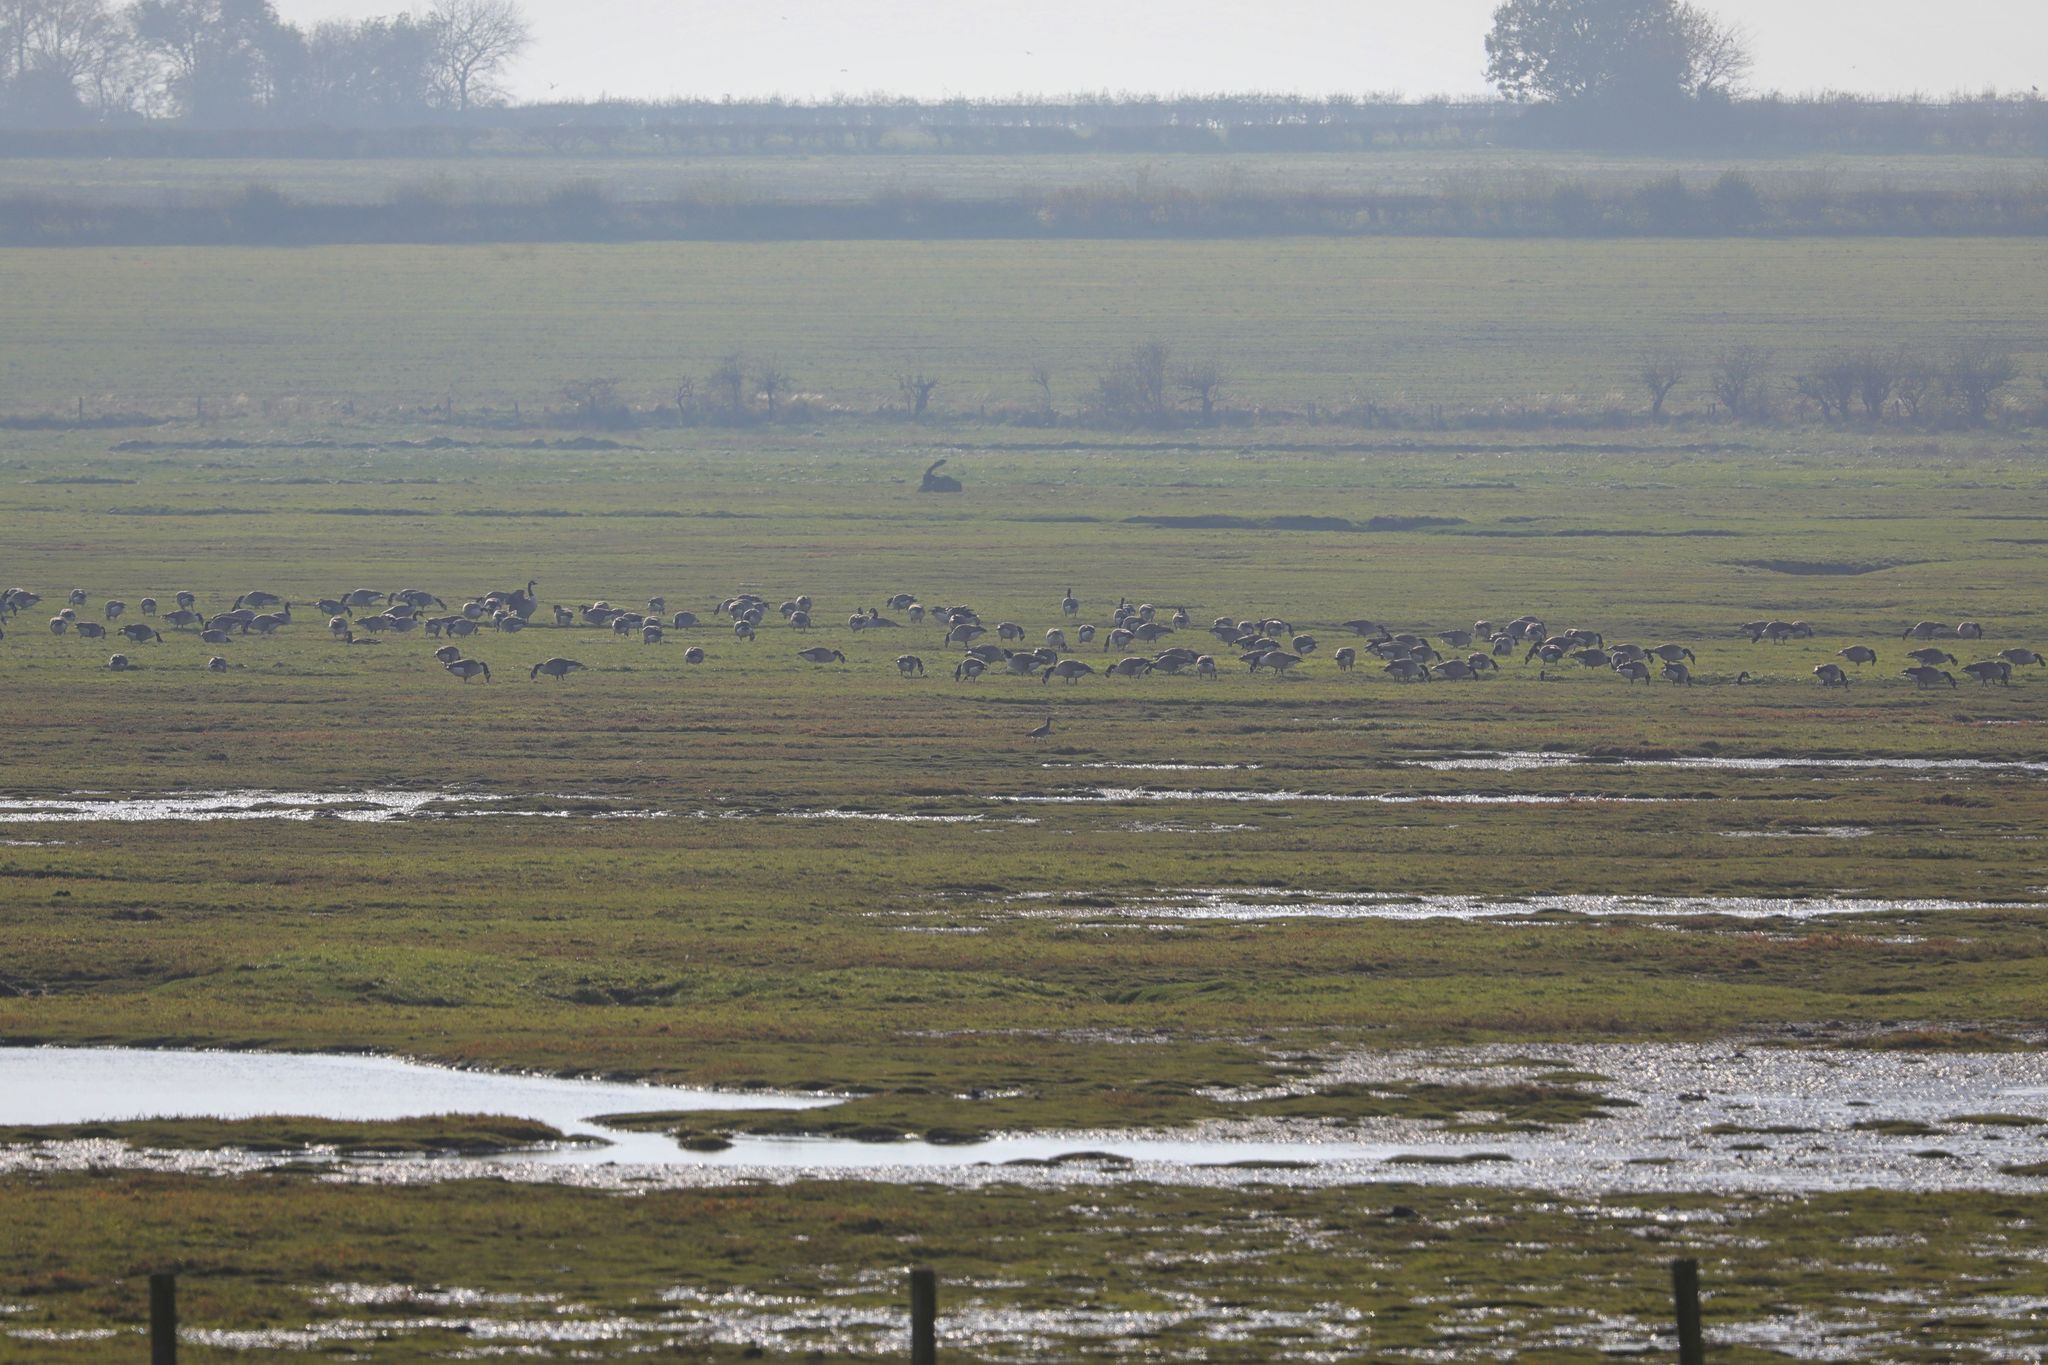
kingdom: Animalia
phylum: Chordata
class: Aves
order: Anseriformes
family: Anatidae
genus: Branta
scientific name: Branta canadensis
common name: Canada goose
